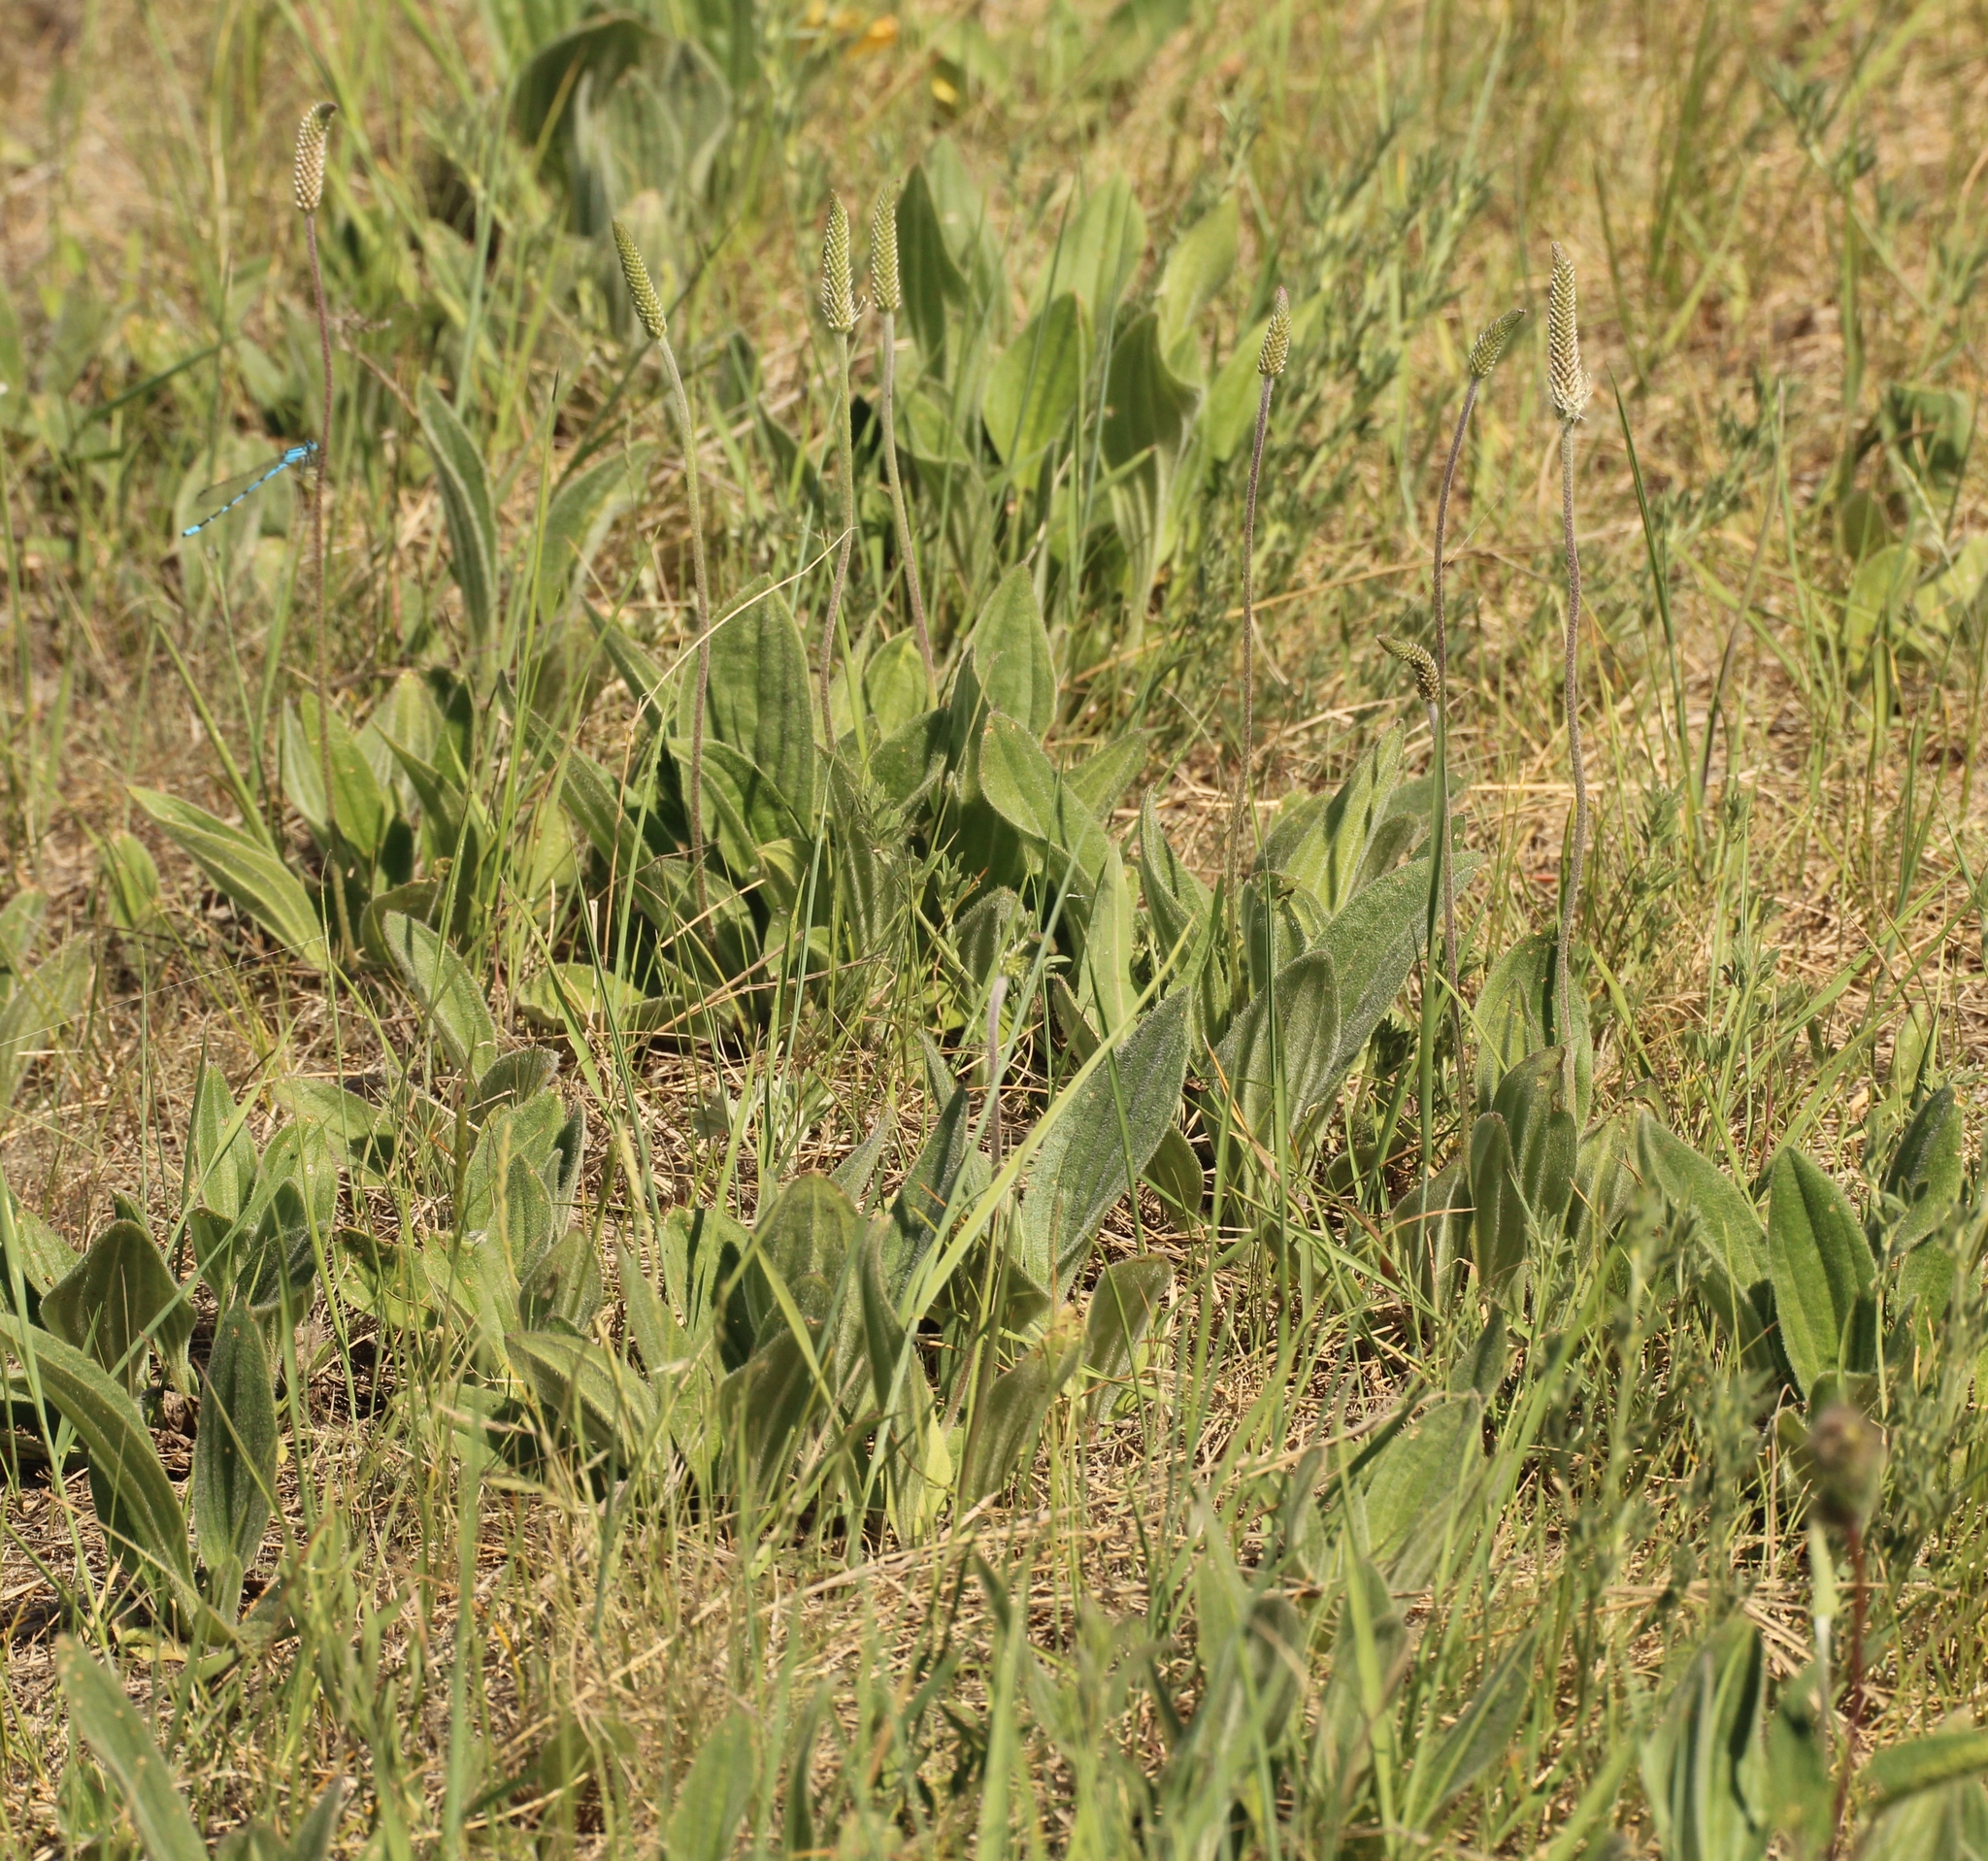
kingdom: Plantae
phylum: Tracheophyta
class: Magnoliopsida
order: Lamiales
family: Plantaginaceae
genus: Plantago
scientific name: Plantago urvillei
